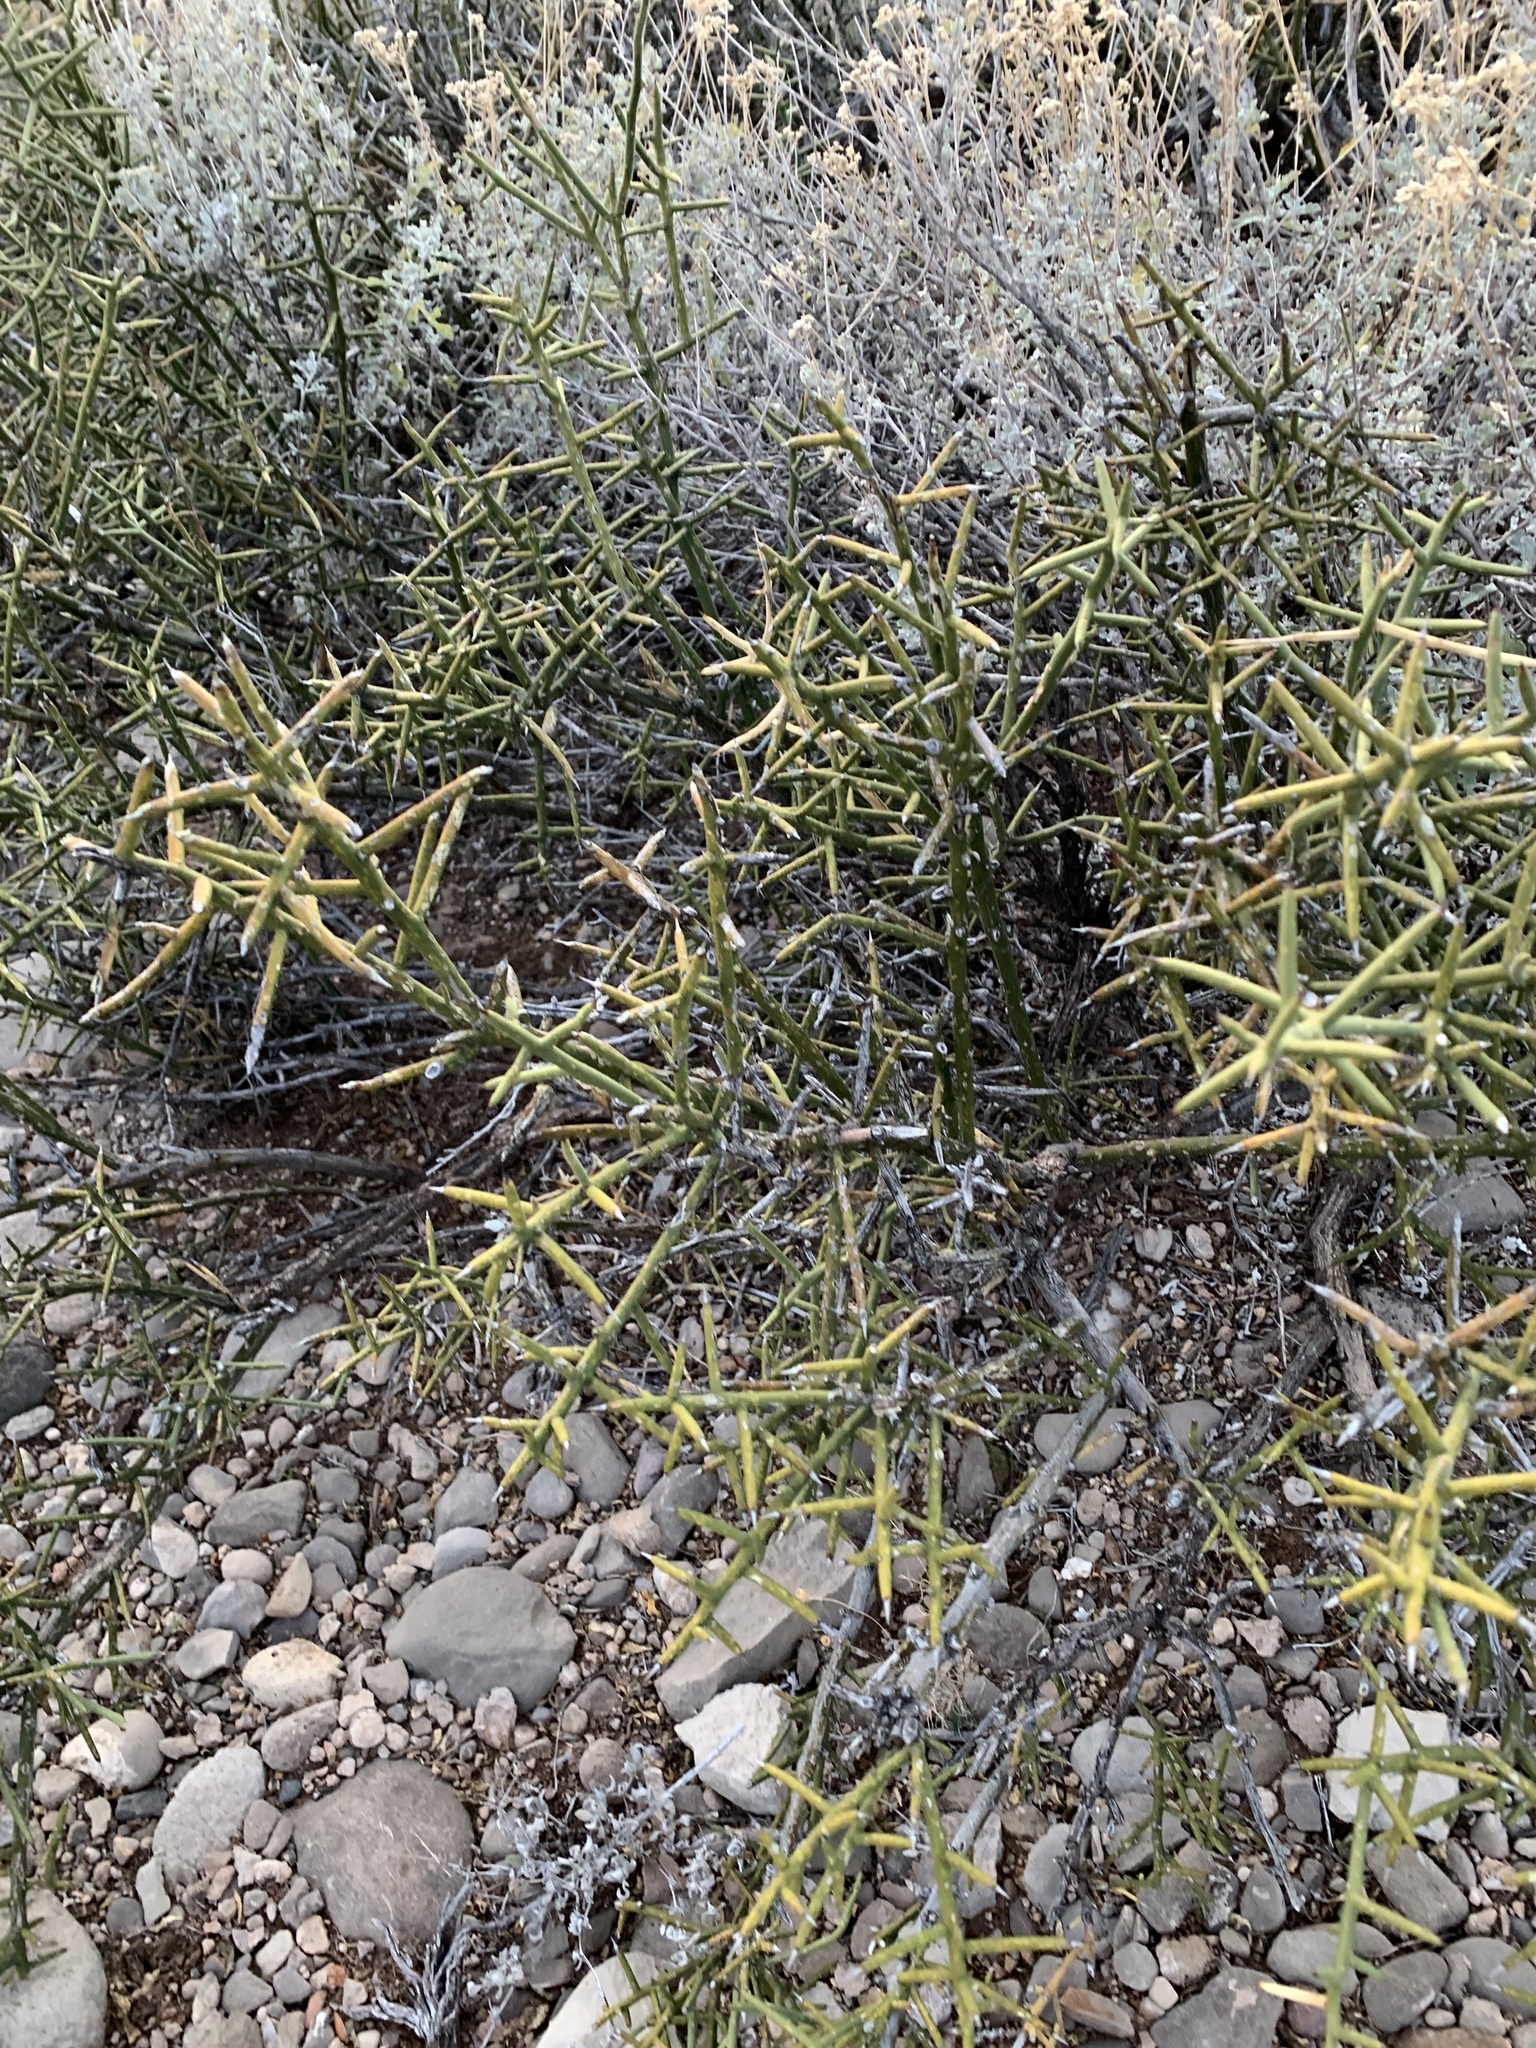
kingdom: Plantae
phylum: Tracheophyta
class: Magnoliopsida
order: Brassicales
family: Koeberliniaceae
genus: Koeberlinia
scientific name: Koeberlinia spinosa
